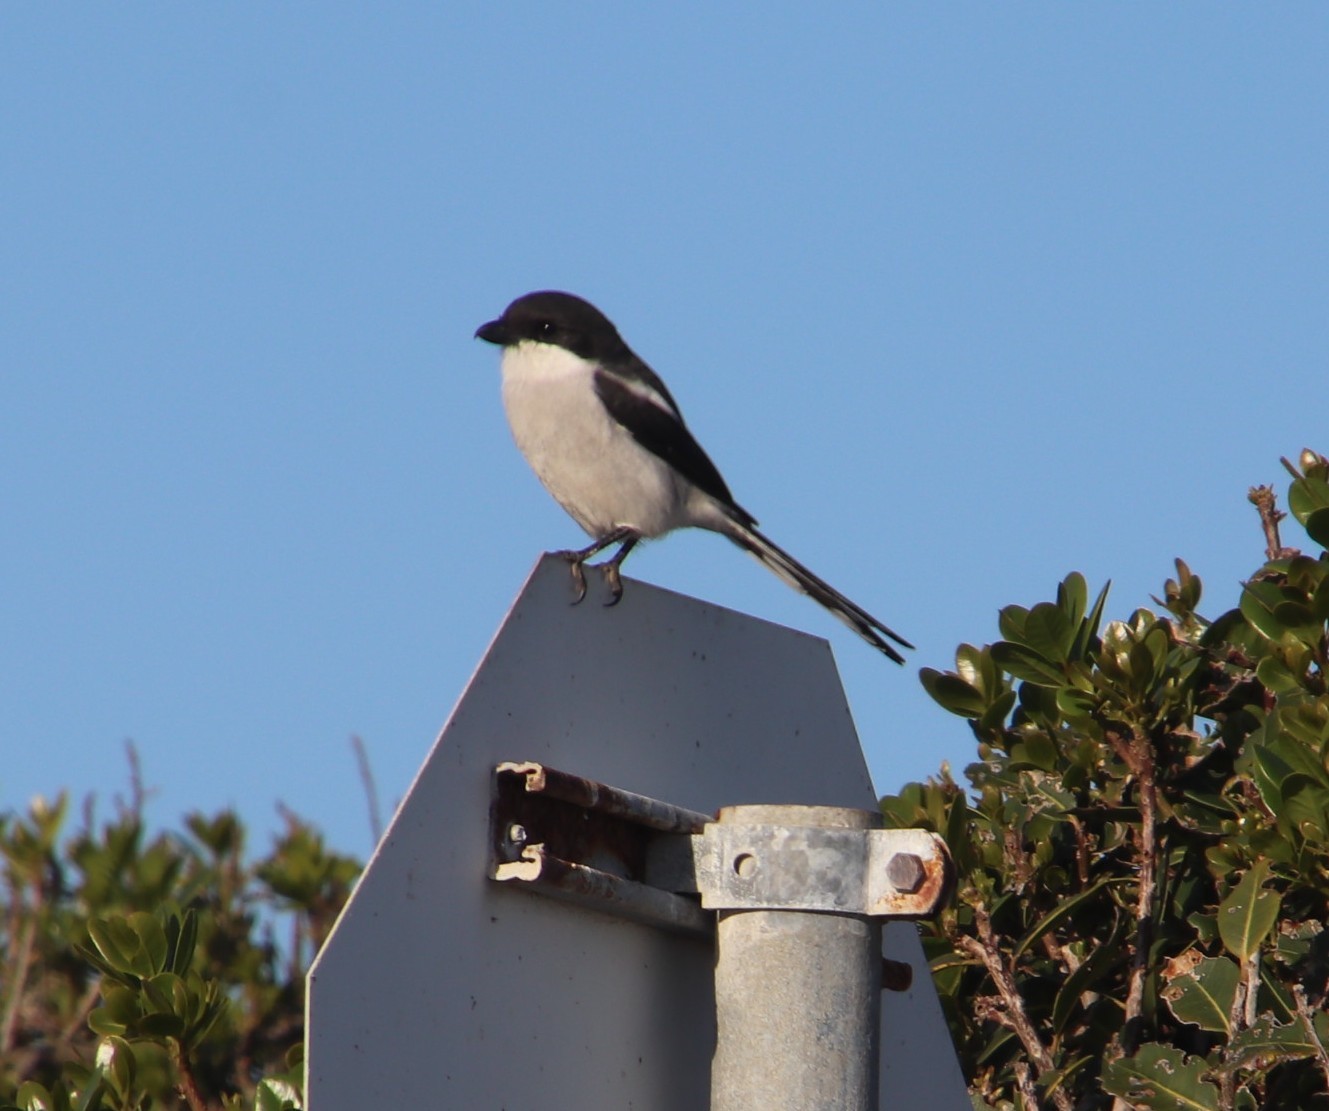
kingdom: Animalia
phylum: Chordata
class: Aves
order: Passeriformes
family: Laniidae
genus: Lanius
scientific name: Lanius collaris
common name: Southern fiscal
